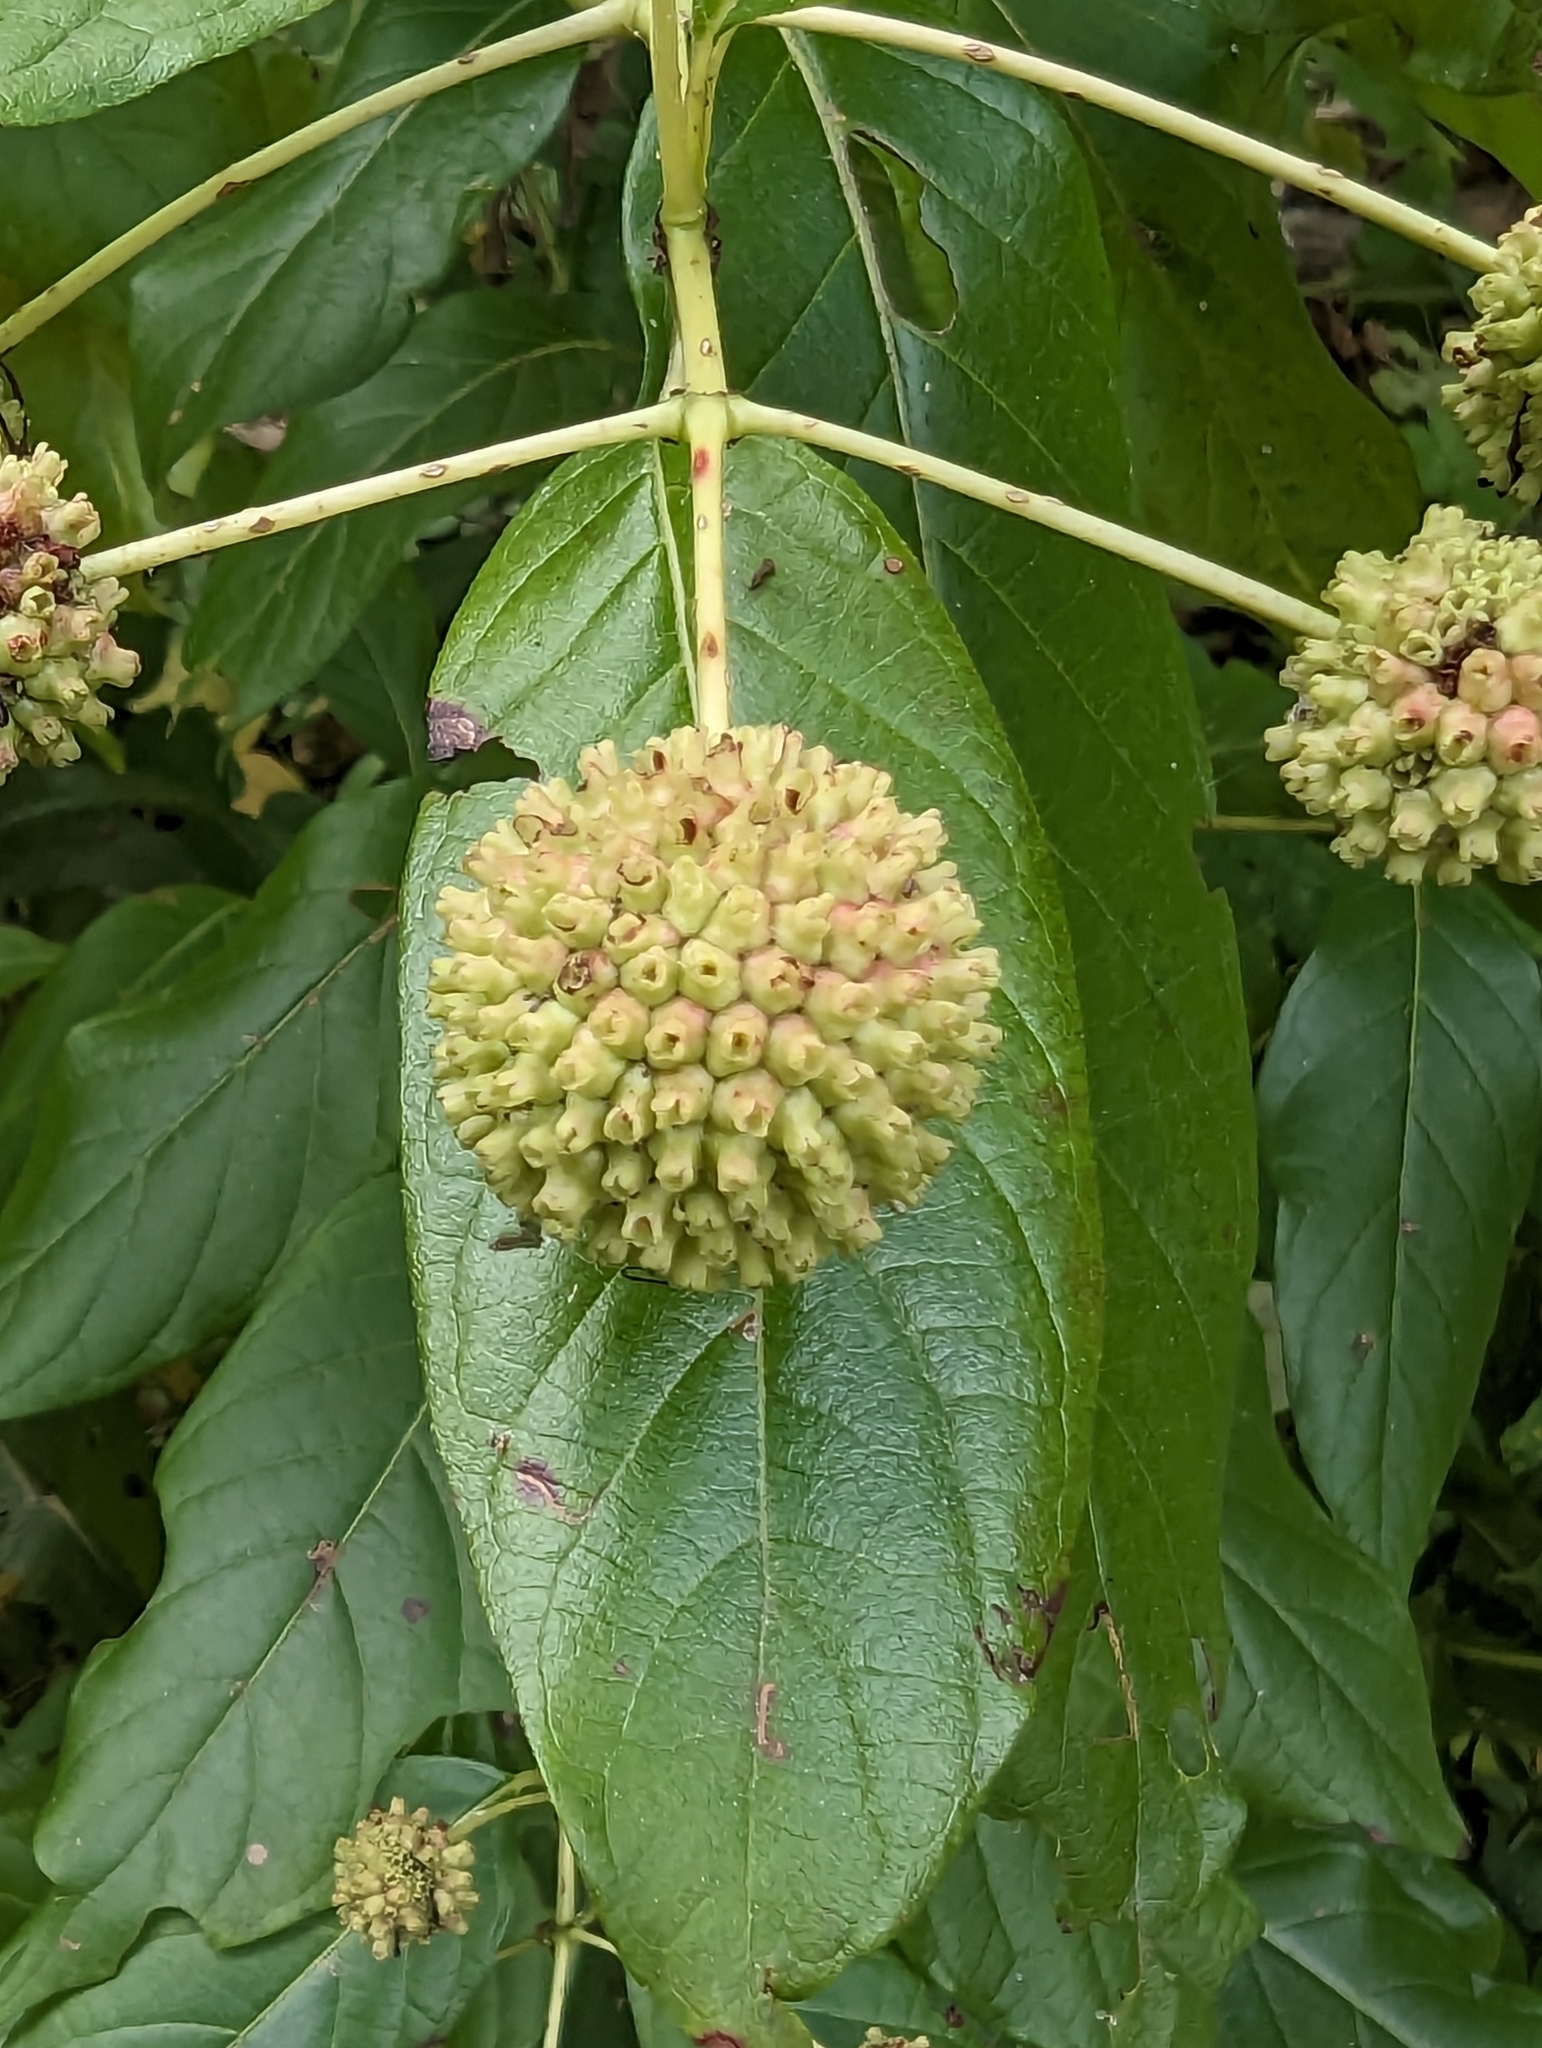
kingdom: Plantae
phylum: Tracheophyta
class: Magnoliopsida
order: Gentianales
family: Rubiaceae
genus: Cephalanthus
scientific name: Cephalanthus occidentalis
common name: Button-willow
